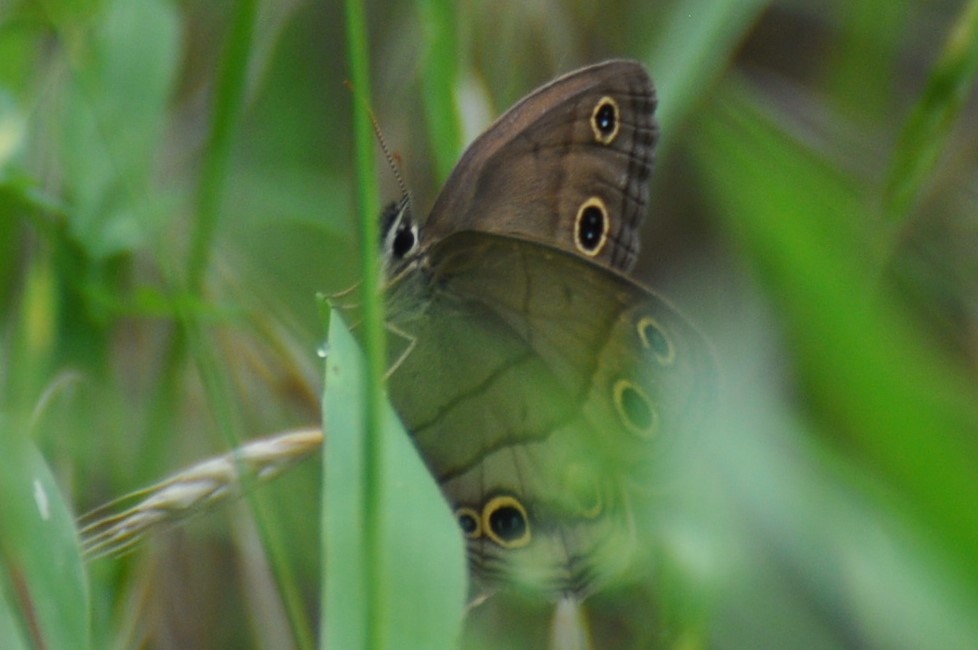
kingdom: Animalia
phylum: Arthropoda
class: Insecta
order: Lepidoptera
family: Nymphalidae
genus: Euptychia
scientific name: Euptychia cymela
